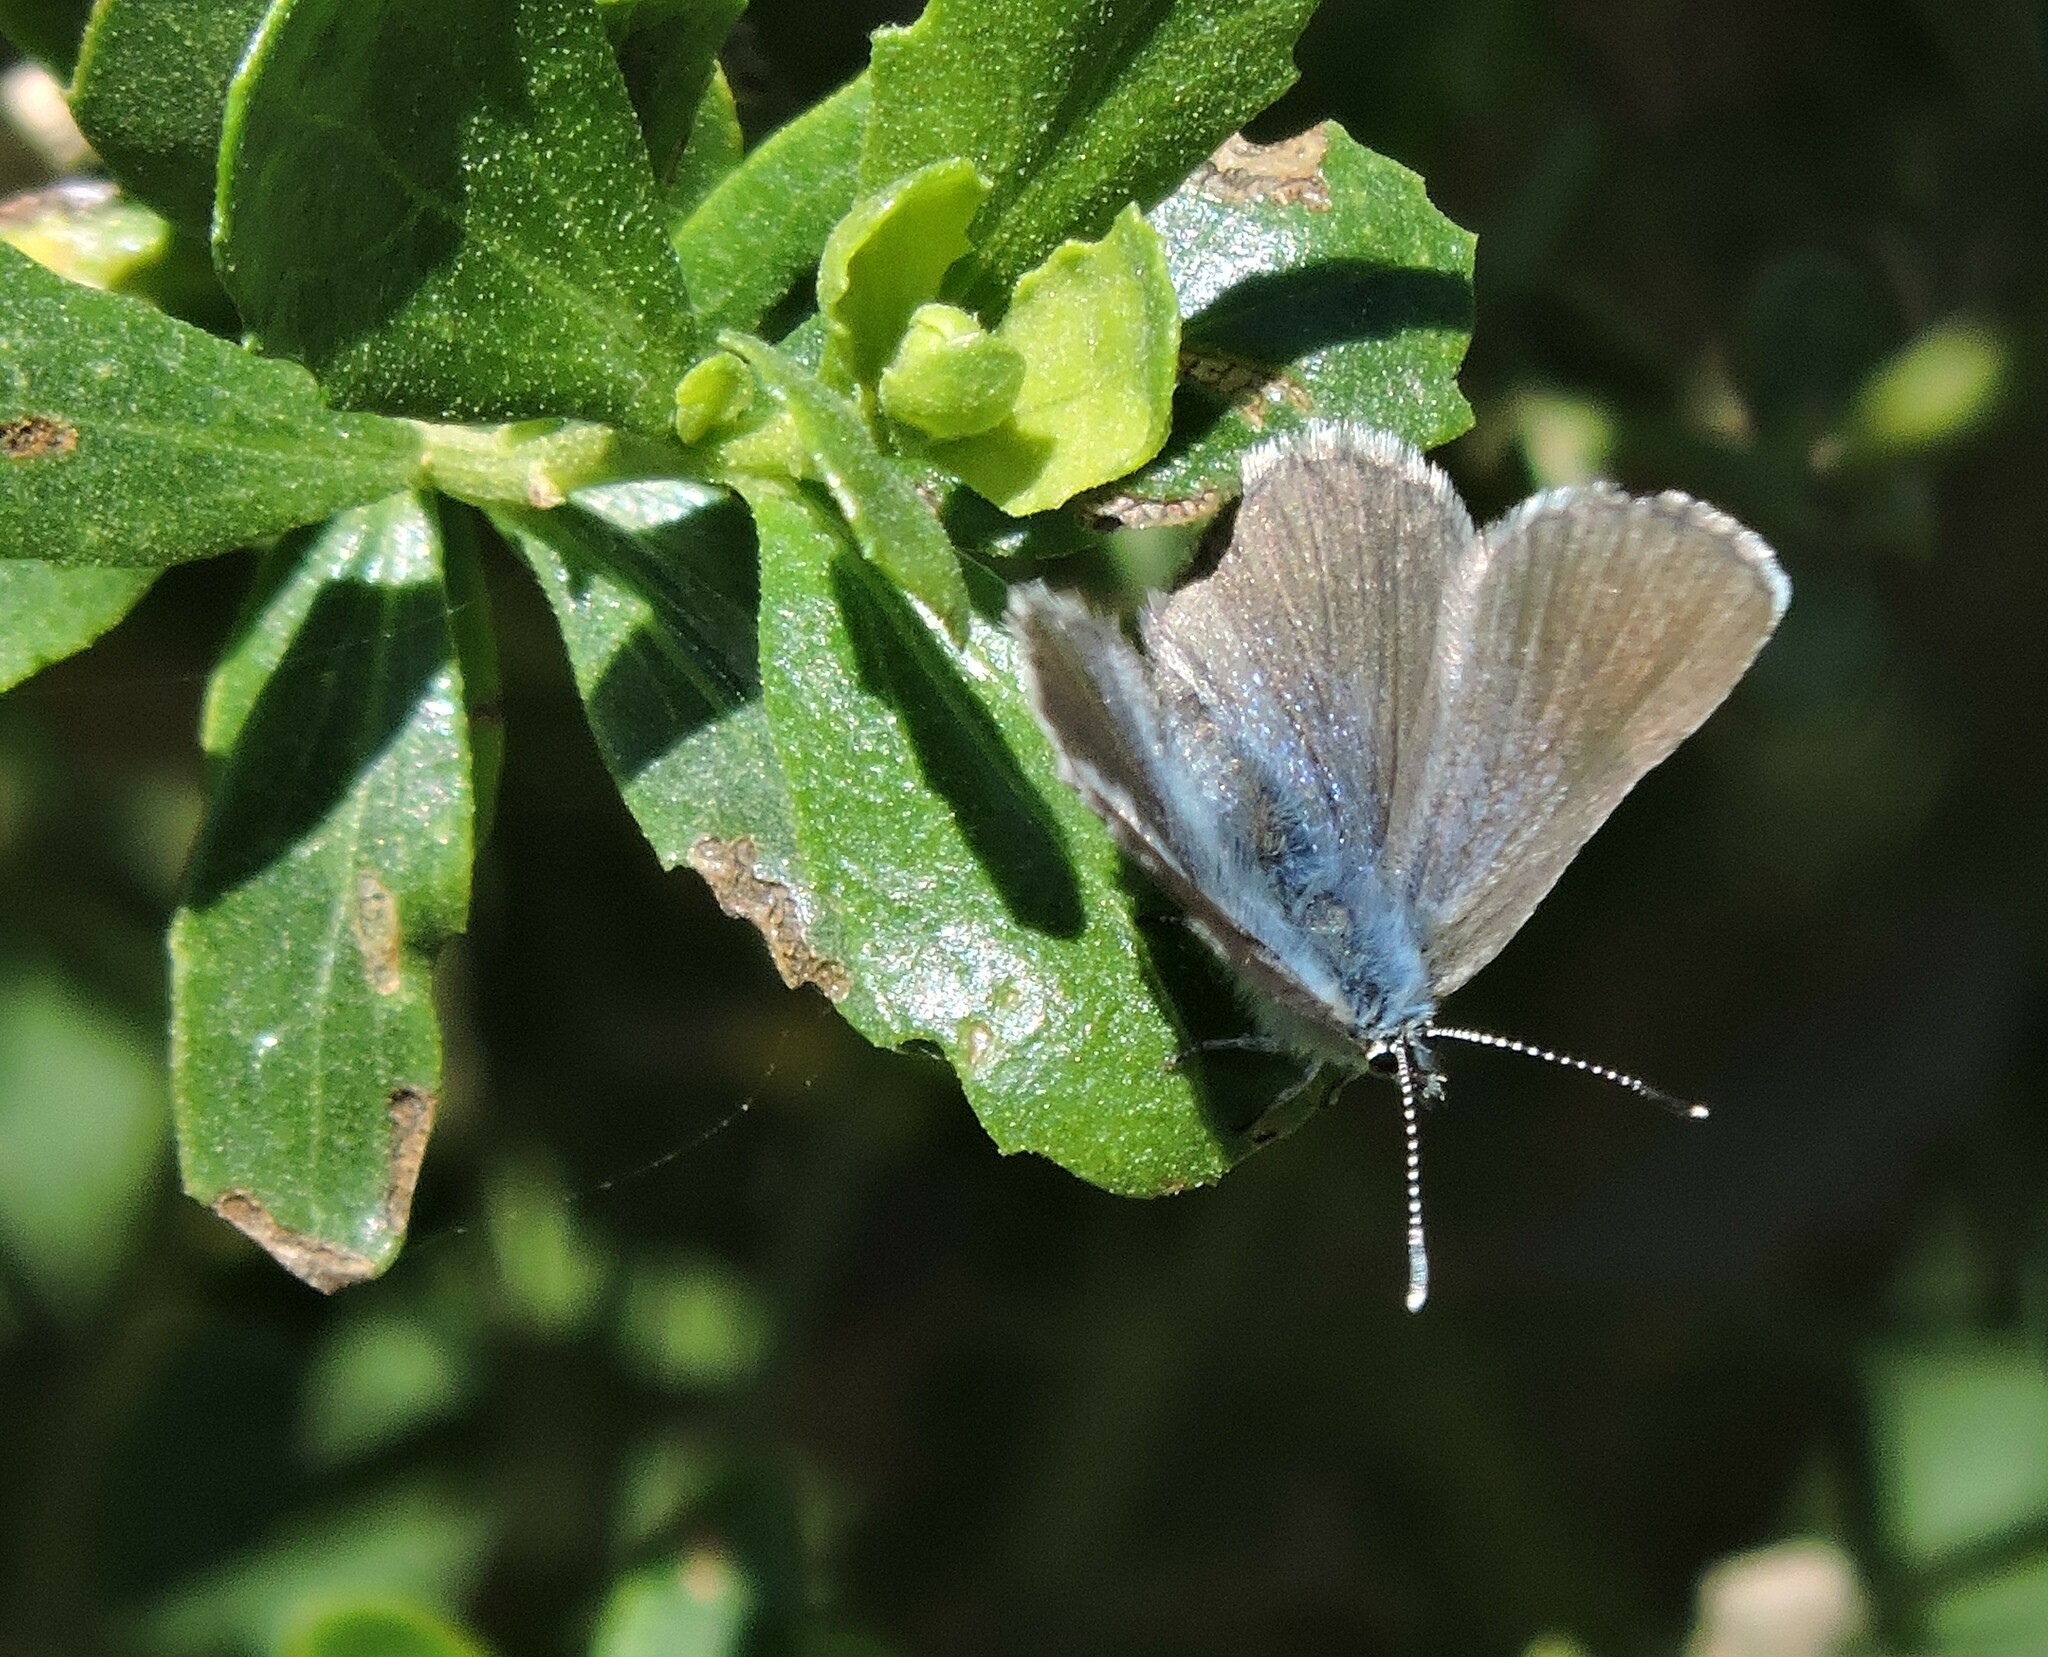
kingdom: Animalia
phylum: Arthropoda
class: Insecta
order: Lepidoptera
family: Lycaenidae
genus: Glaucopsyche
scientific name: Glaucopsyche lygdamus
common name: Silvery blue
